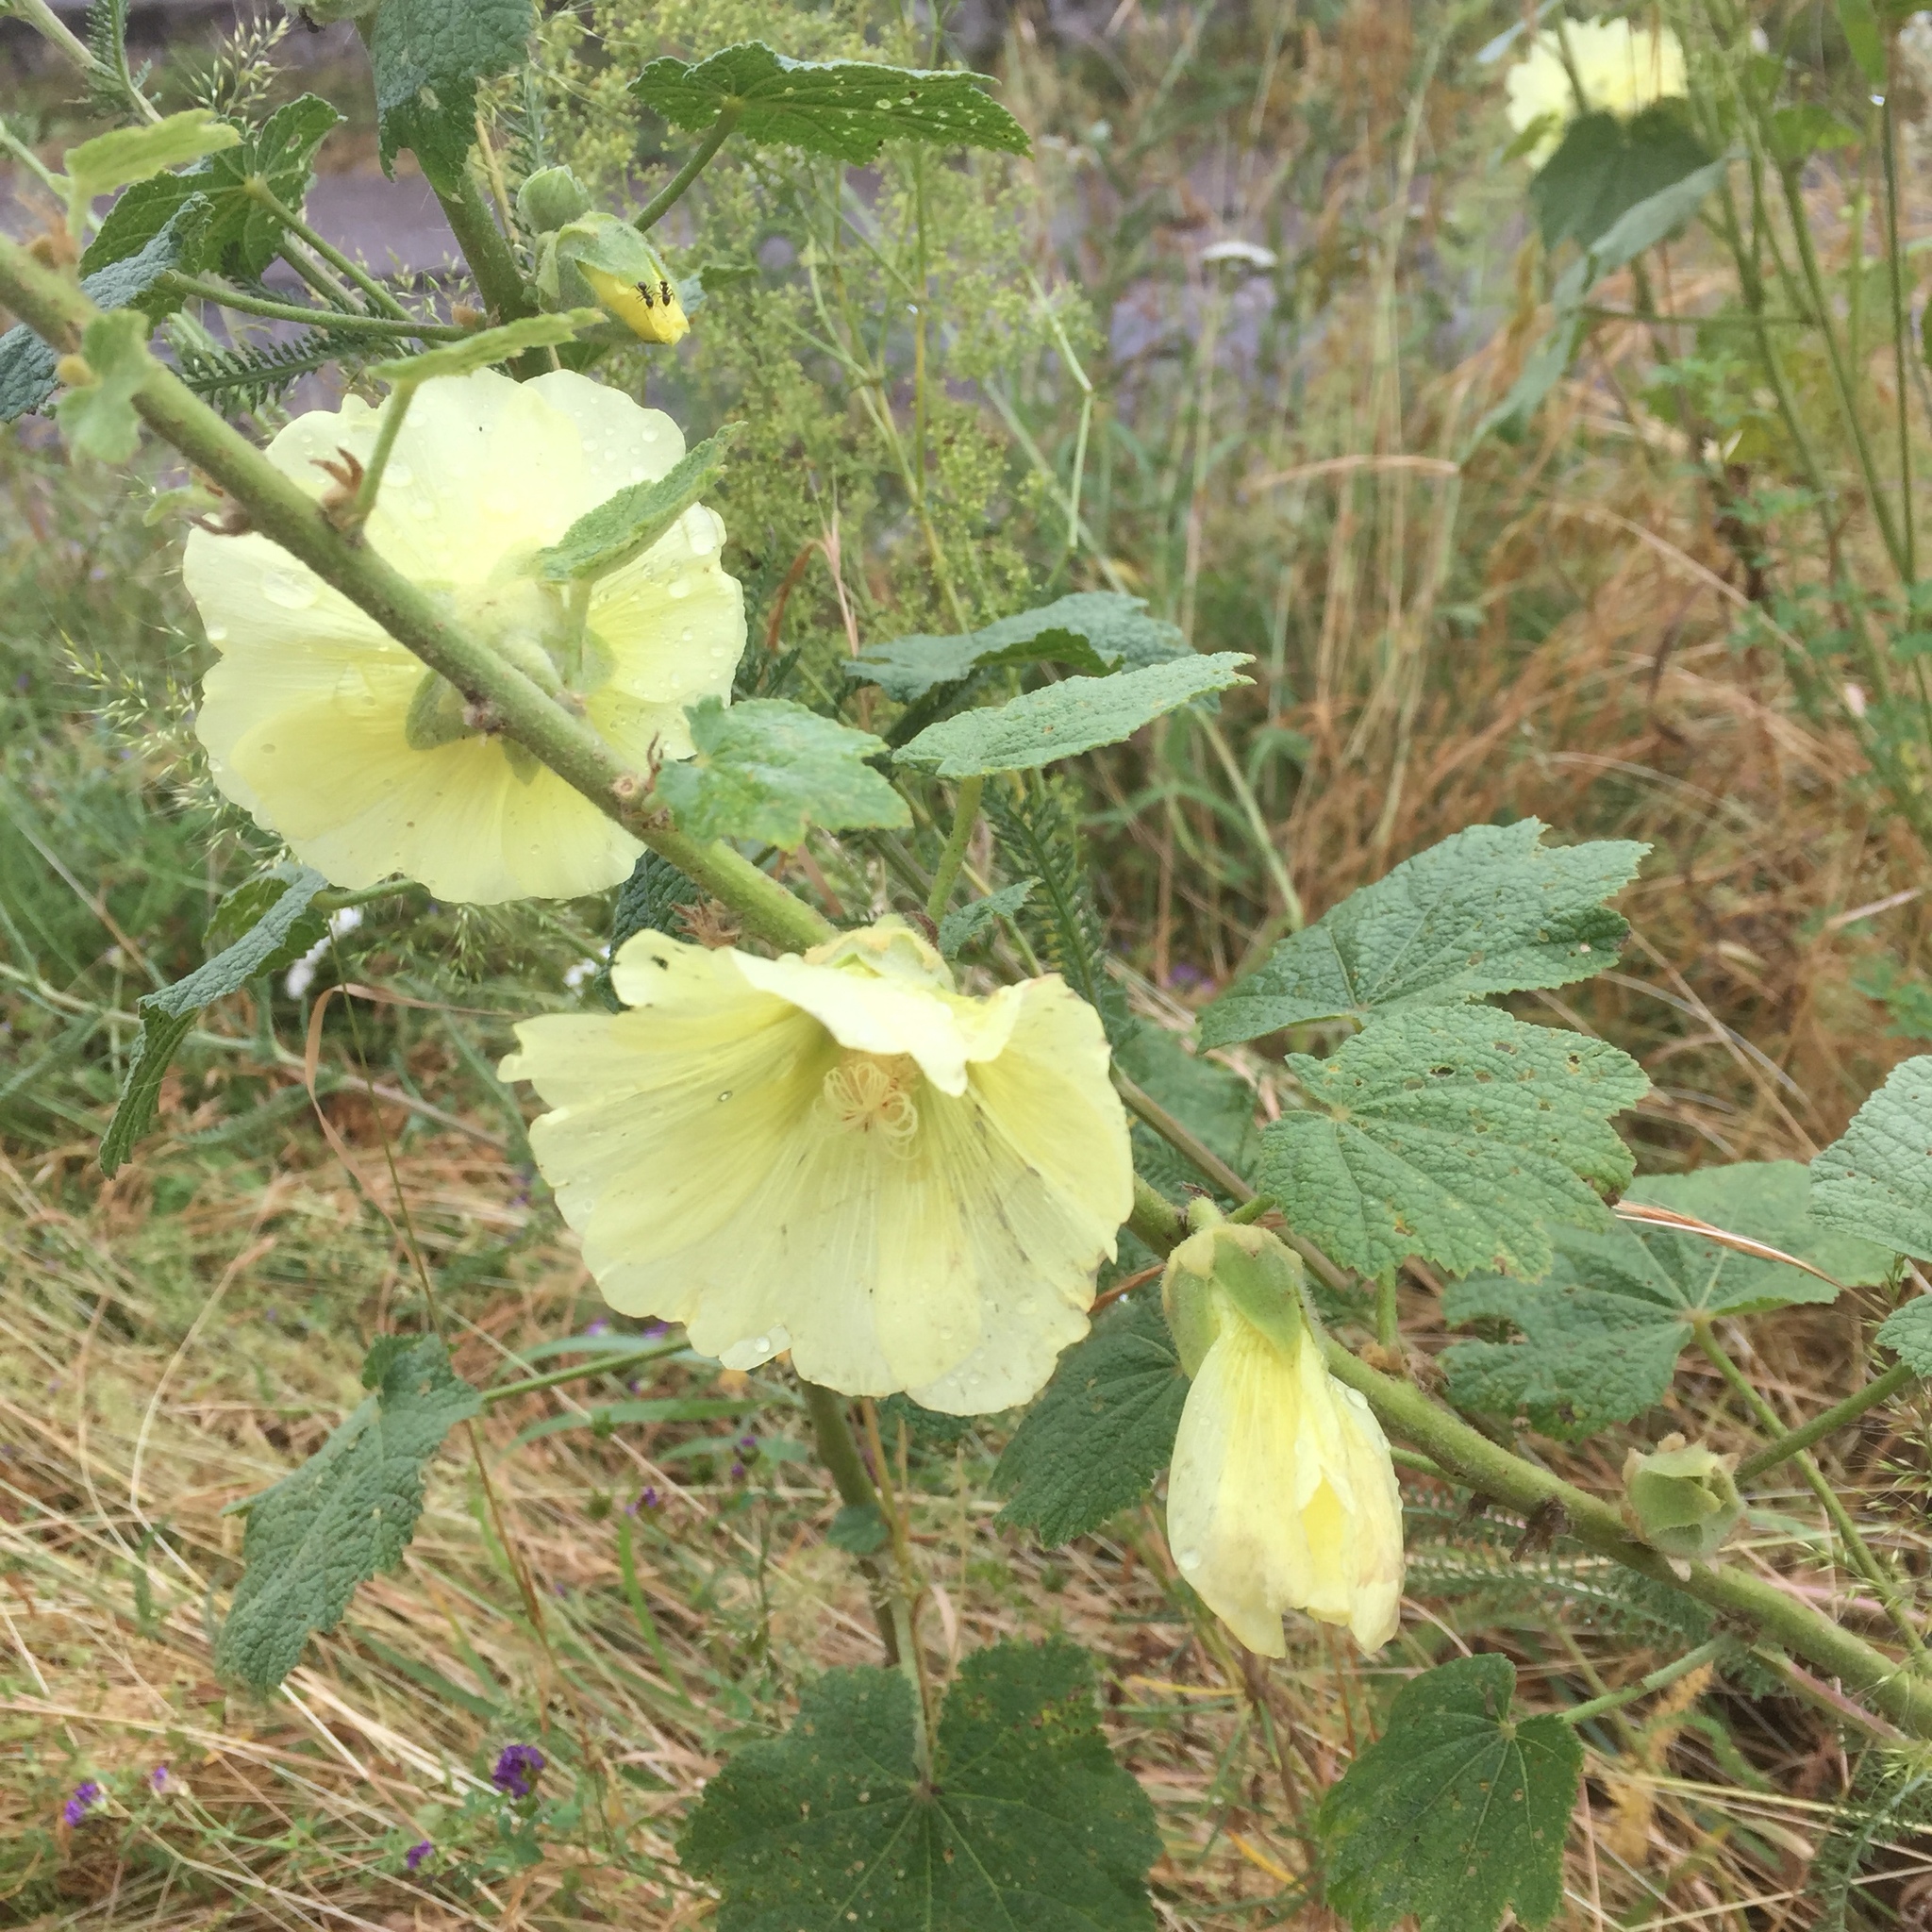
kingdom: Plantae
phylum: Tracheophyta
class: Magnoliopsida
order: Malvales
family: Malvaceae
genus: Alcea
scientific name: Alcea rugosa
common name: Russian hollyhock
